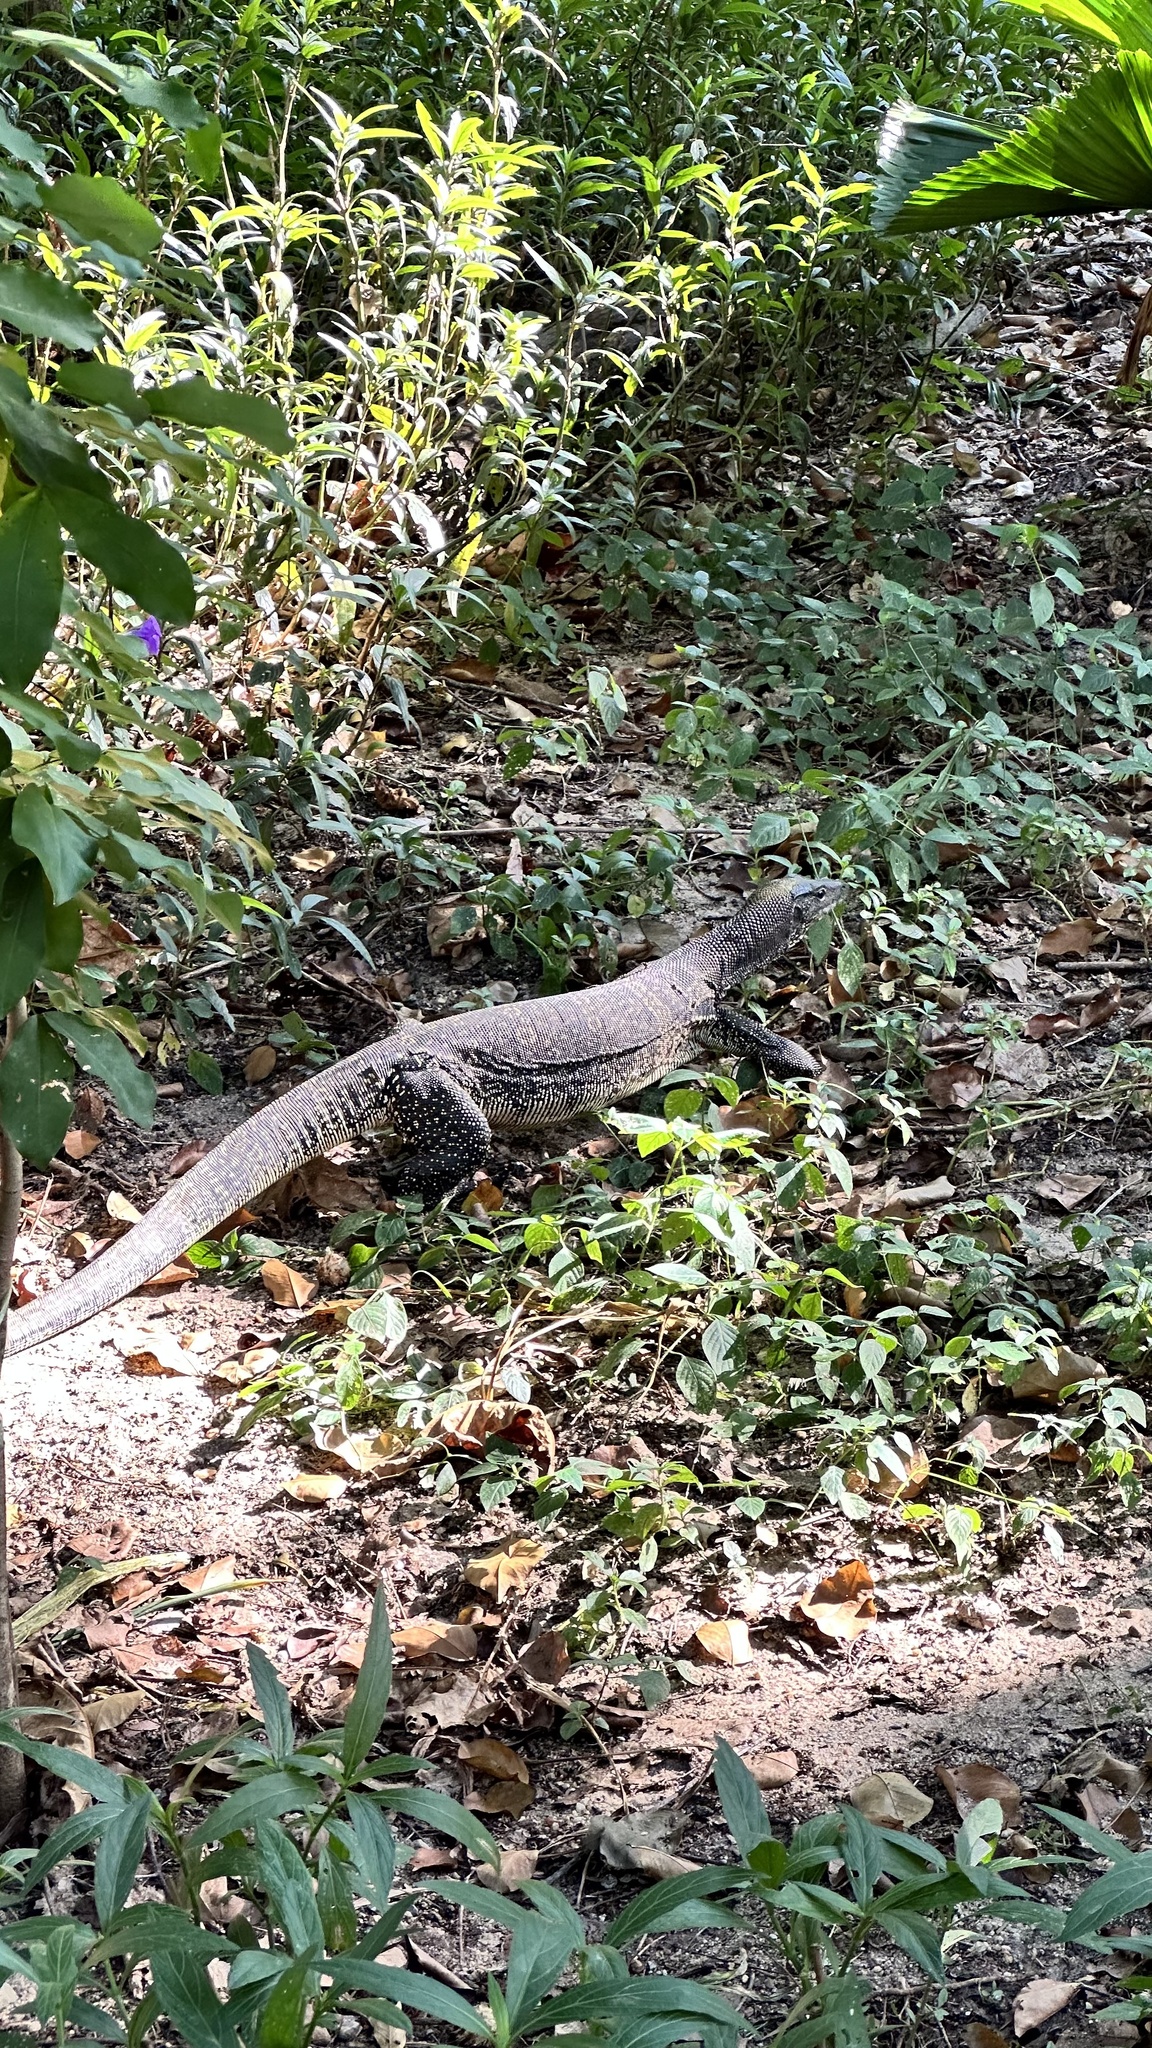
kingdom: Animalia
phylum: Chordata
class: Squamata
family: Varanidae
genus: Varanus
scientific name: Varanus salvator
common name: Common water monitor
